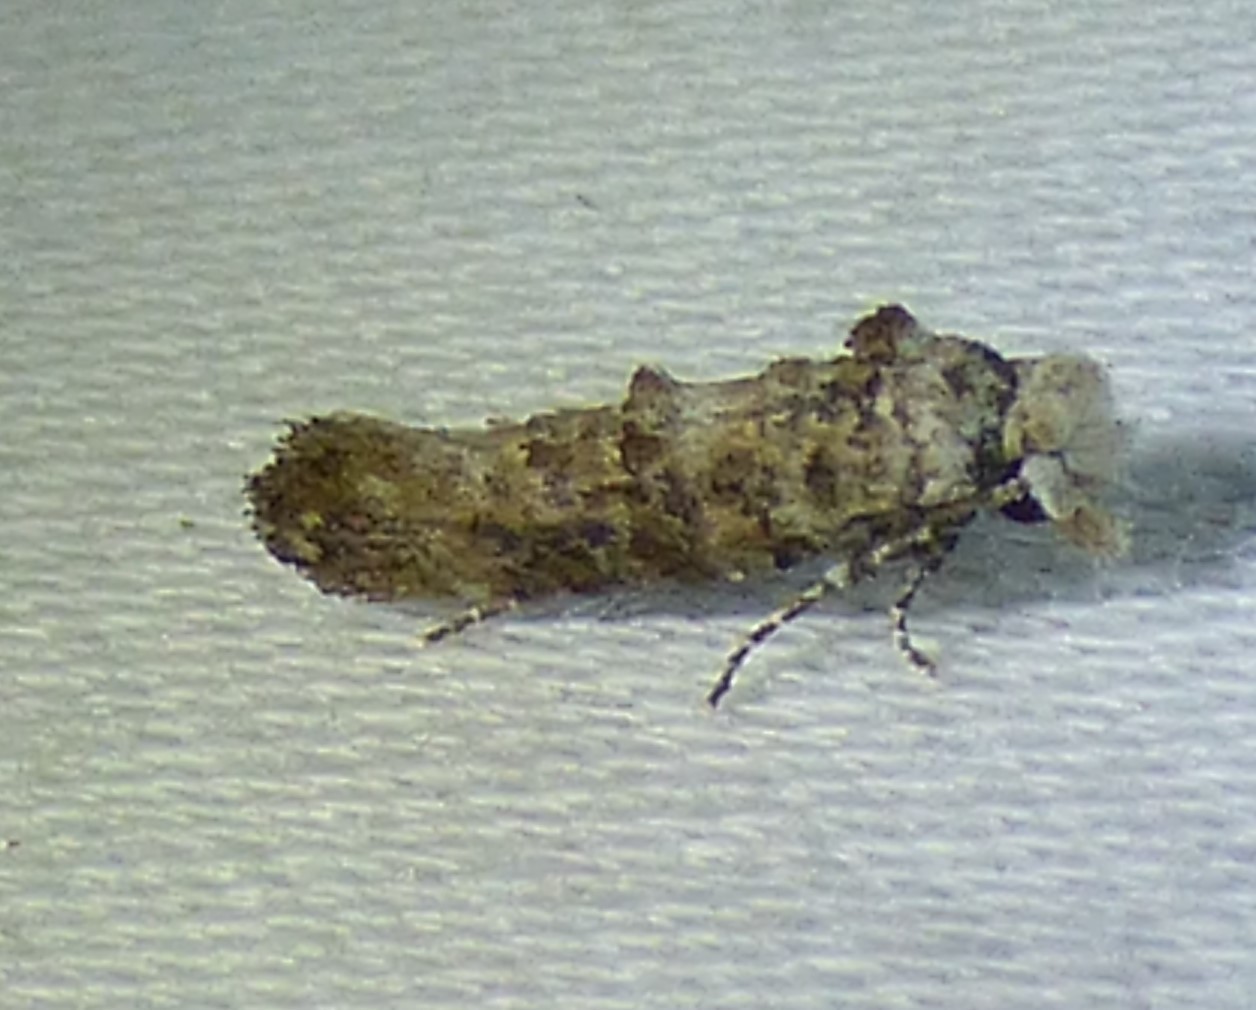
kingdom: Animalia
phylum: Arthropoda
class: Insecta
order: Lepidoptera
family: Tineidae
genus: Xylesthia
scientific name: Xylesthia pruniramiella
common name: Clemens' bark moth
